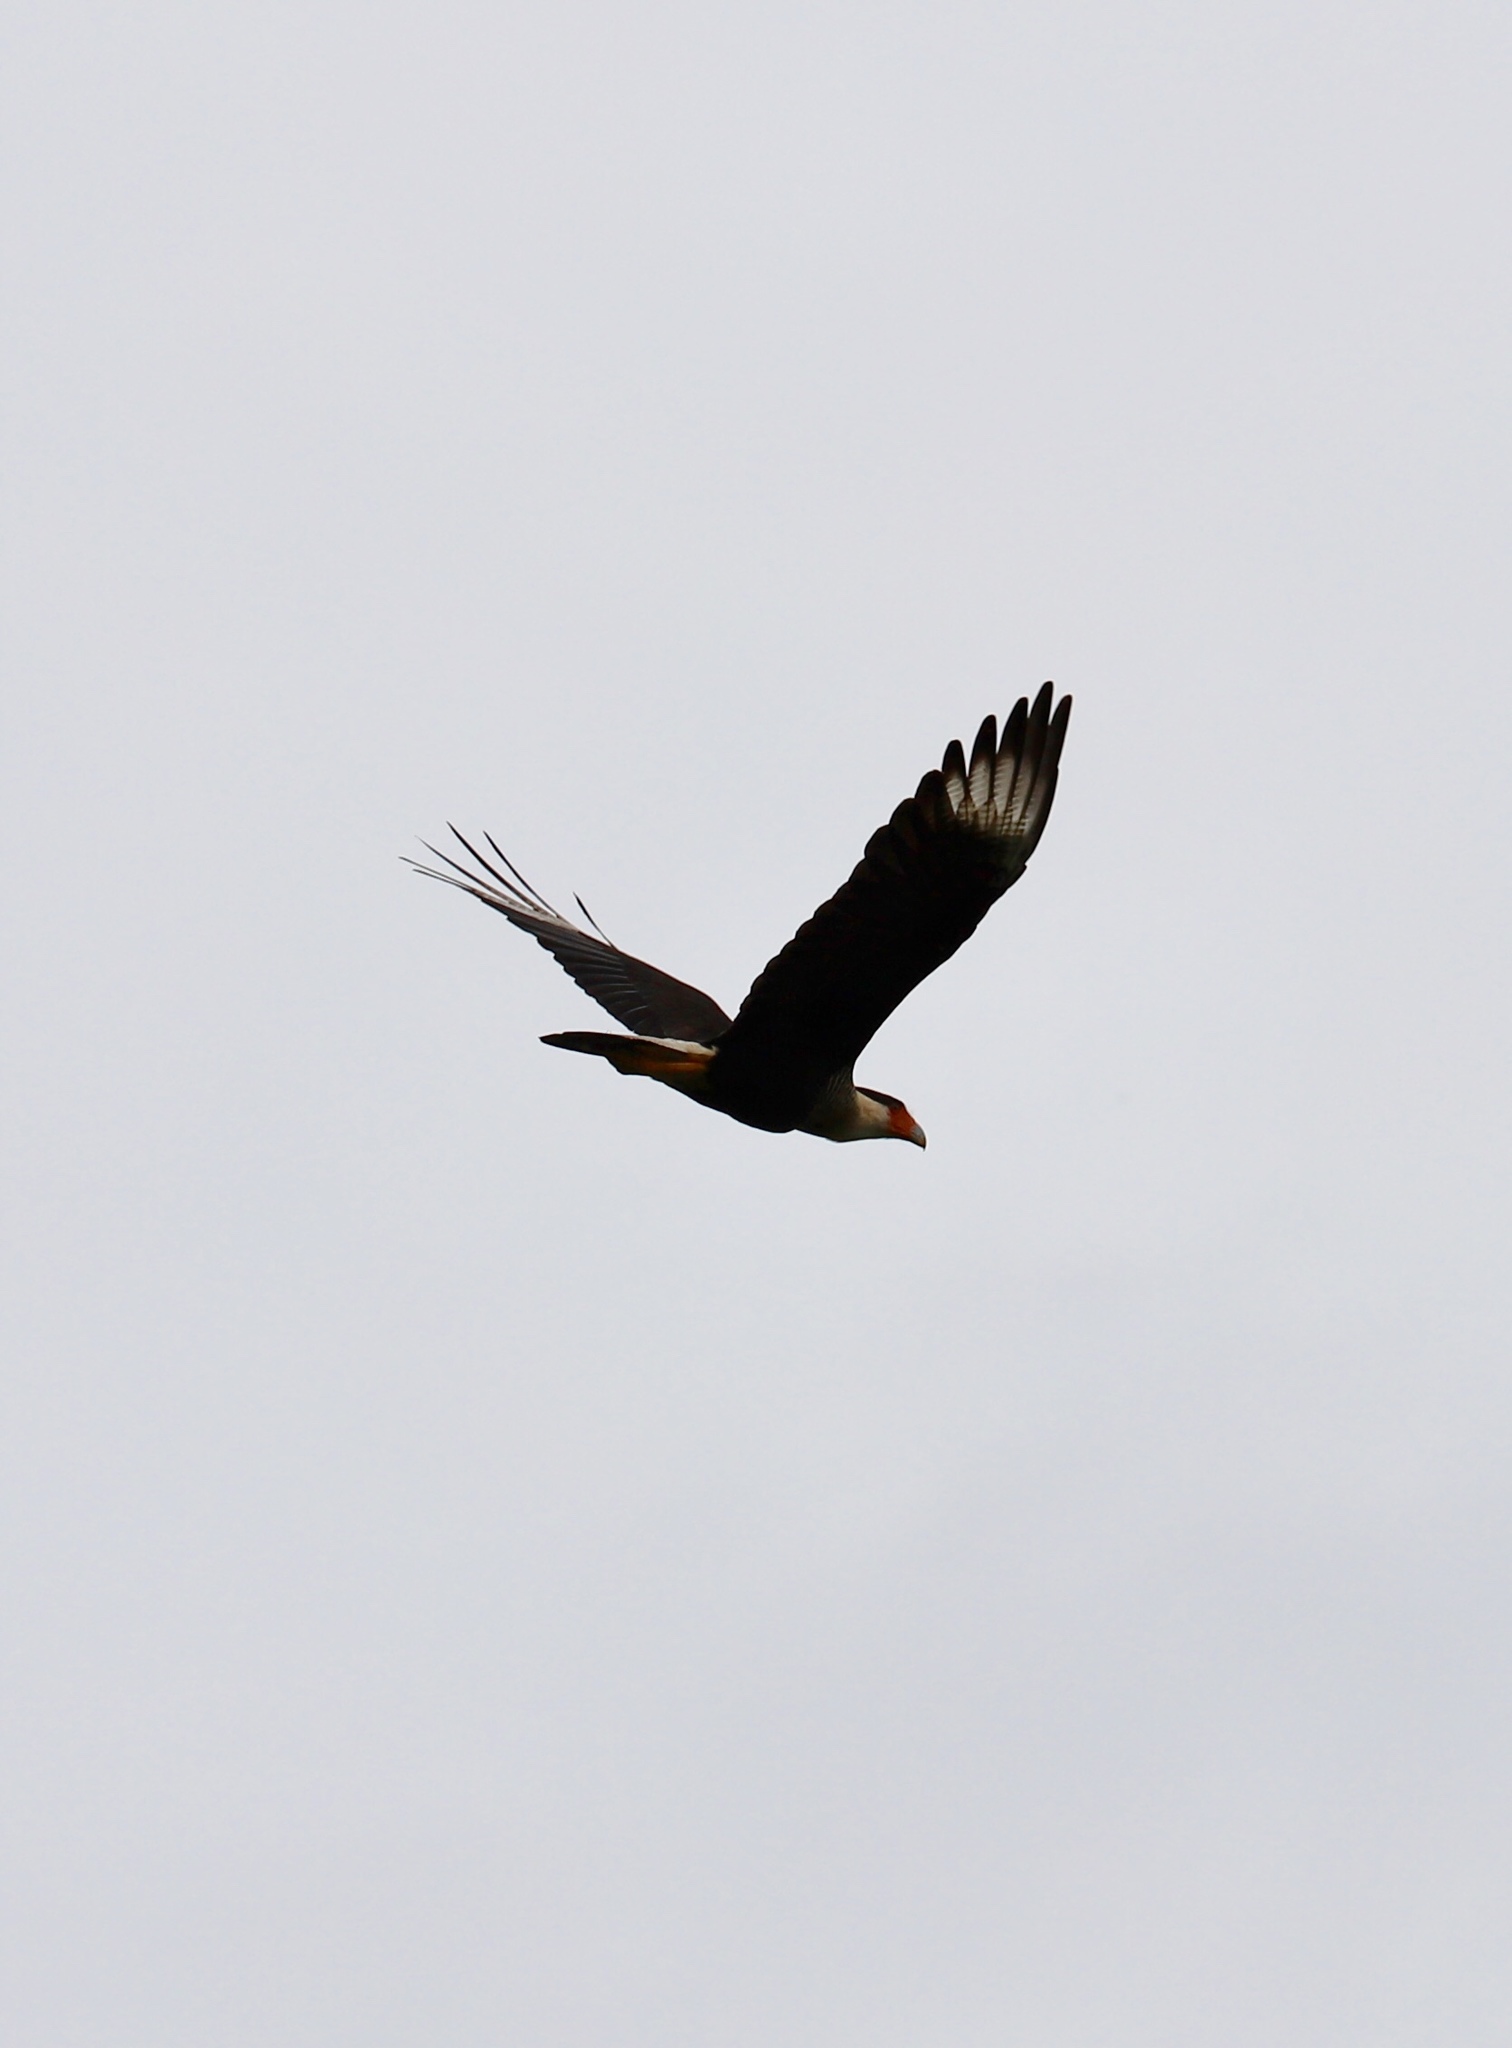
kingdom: Animalia
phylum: Chordata
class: Aves
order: Falconiformes
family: Falconidae
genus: Caracara
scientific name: Caracara plancus
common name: Southern caracara
